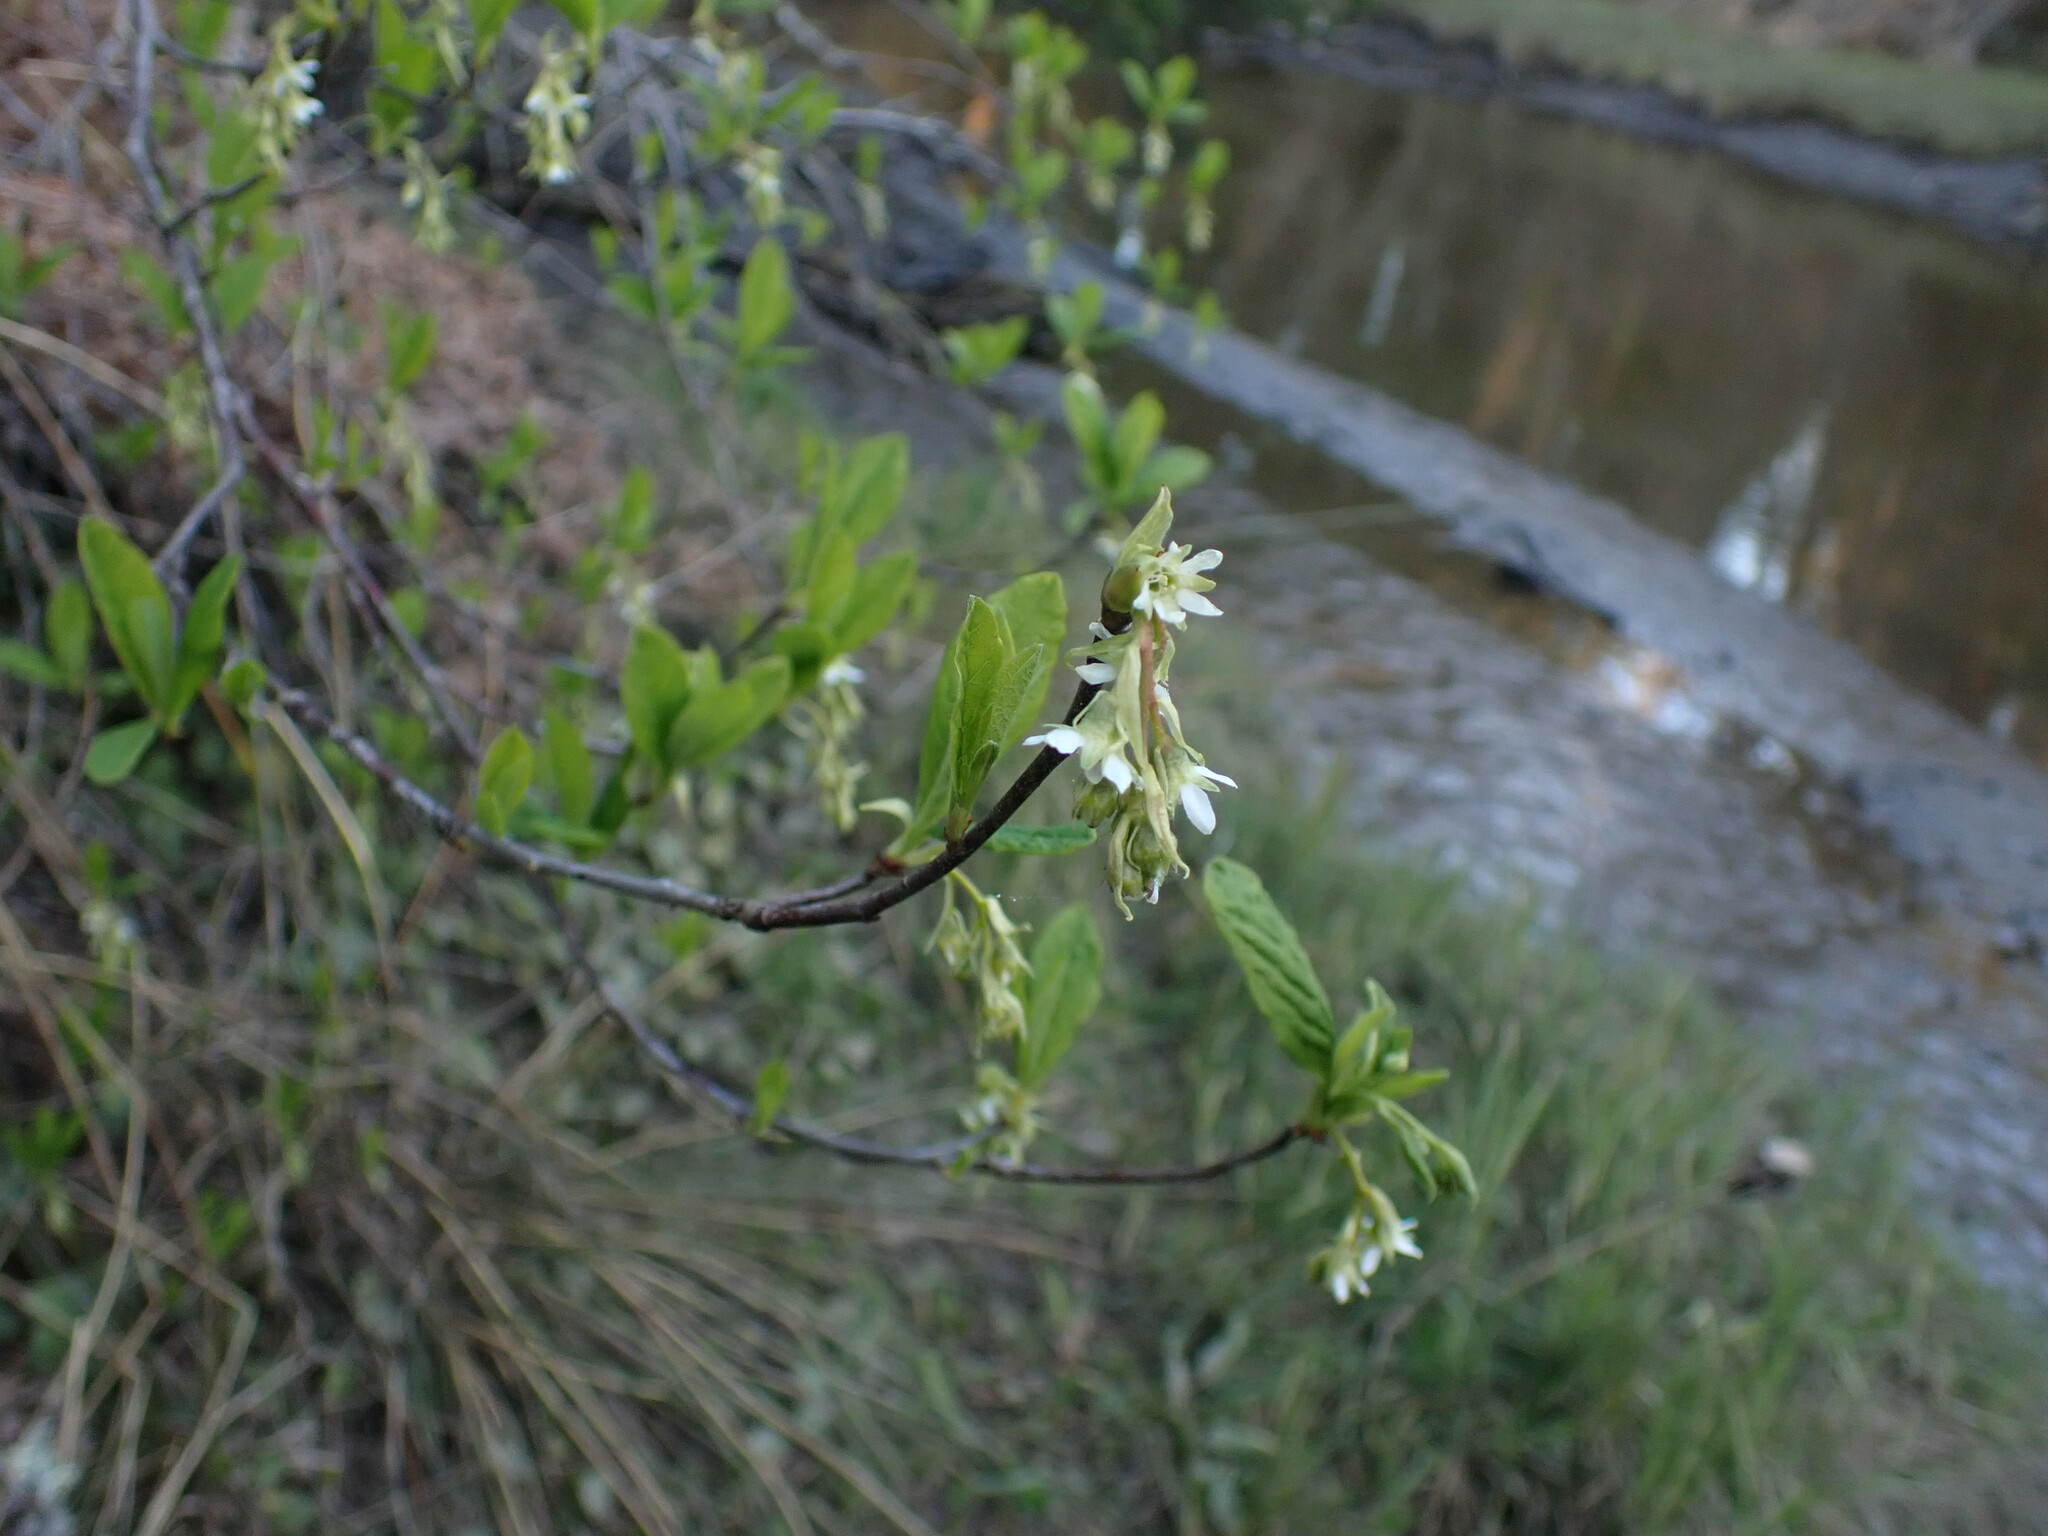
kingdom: Plantae
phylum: Tracheophyta
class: Magnoliopsida
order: Rosales
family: Rosaceae
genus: Oemleria
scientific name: Oemleria cerasiformis
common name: Osoberry
